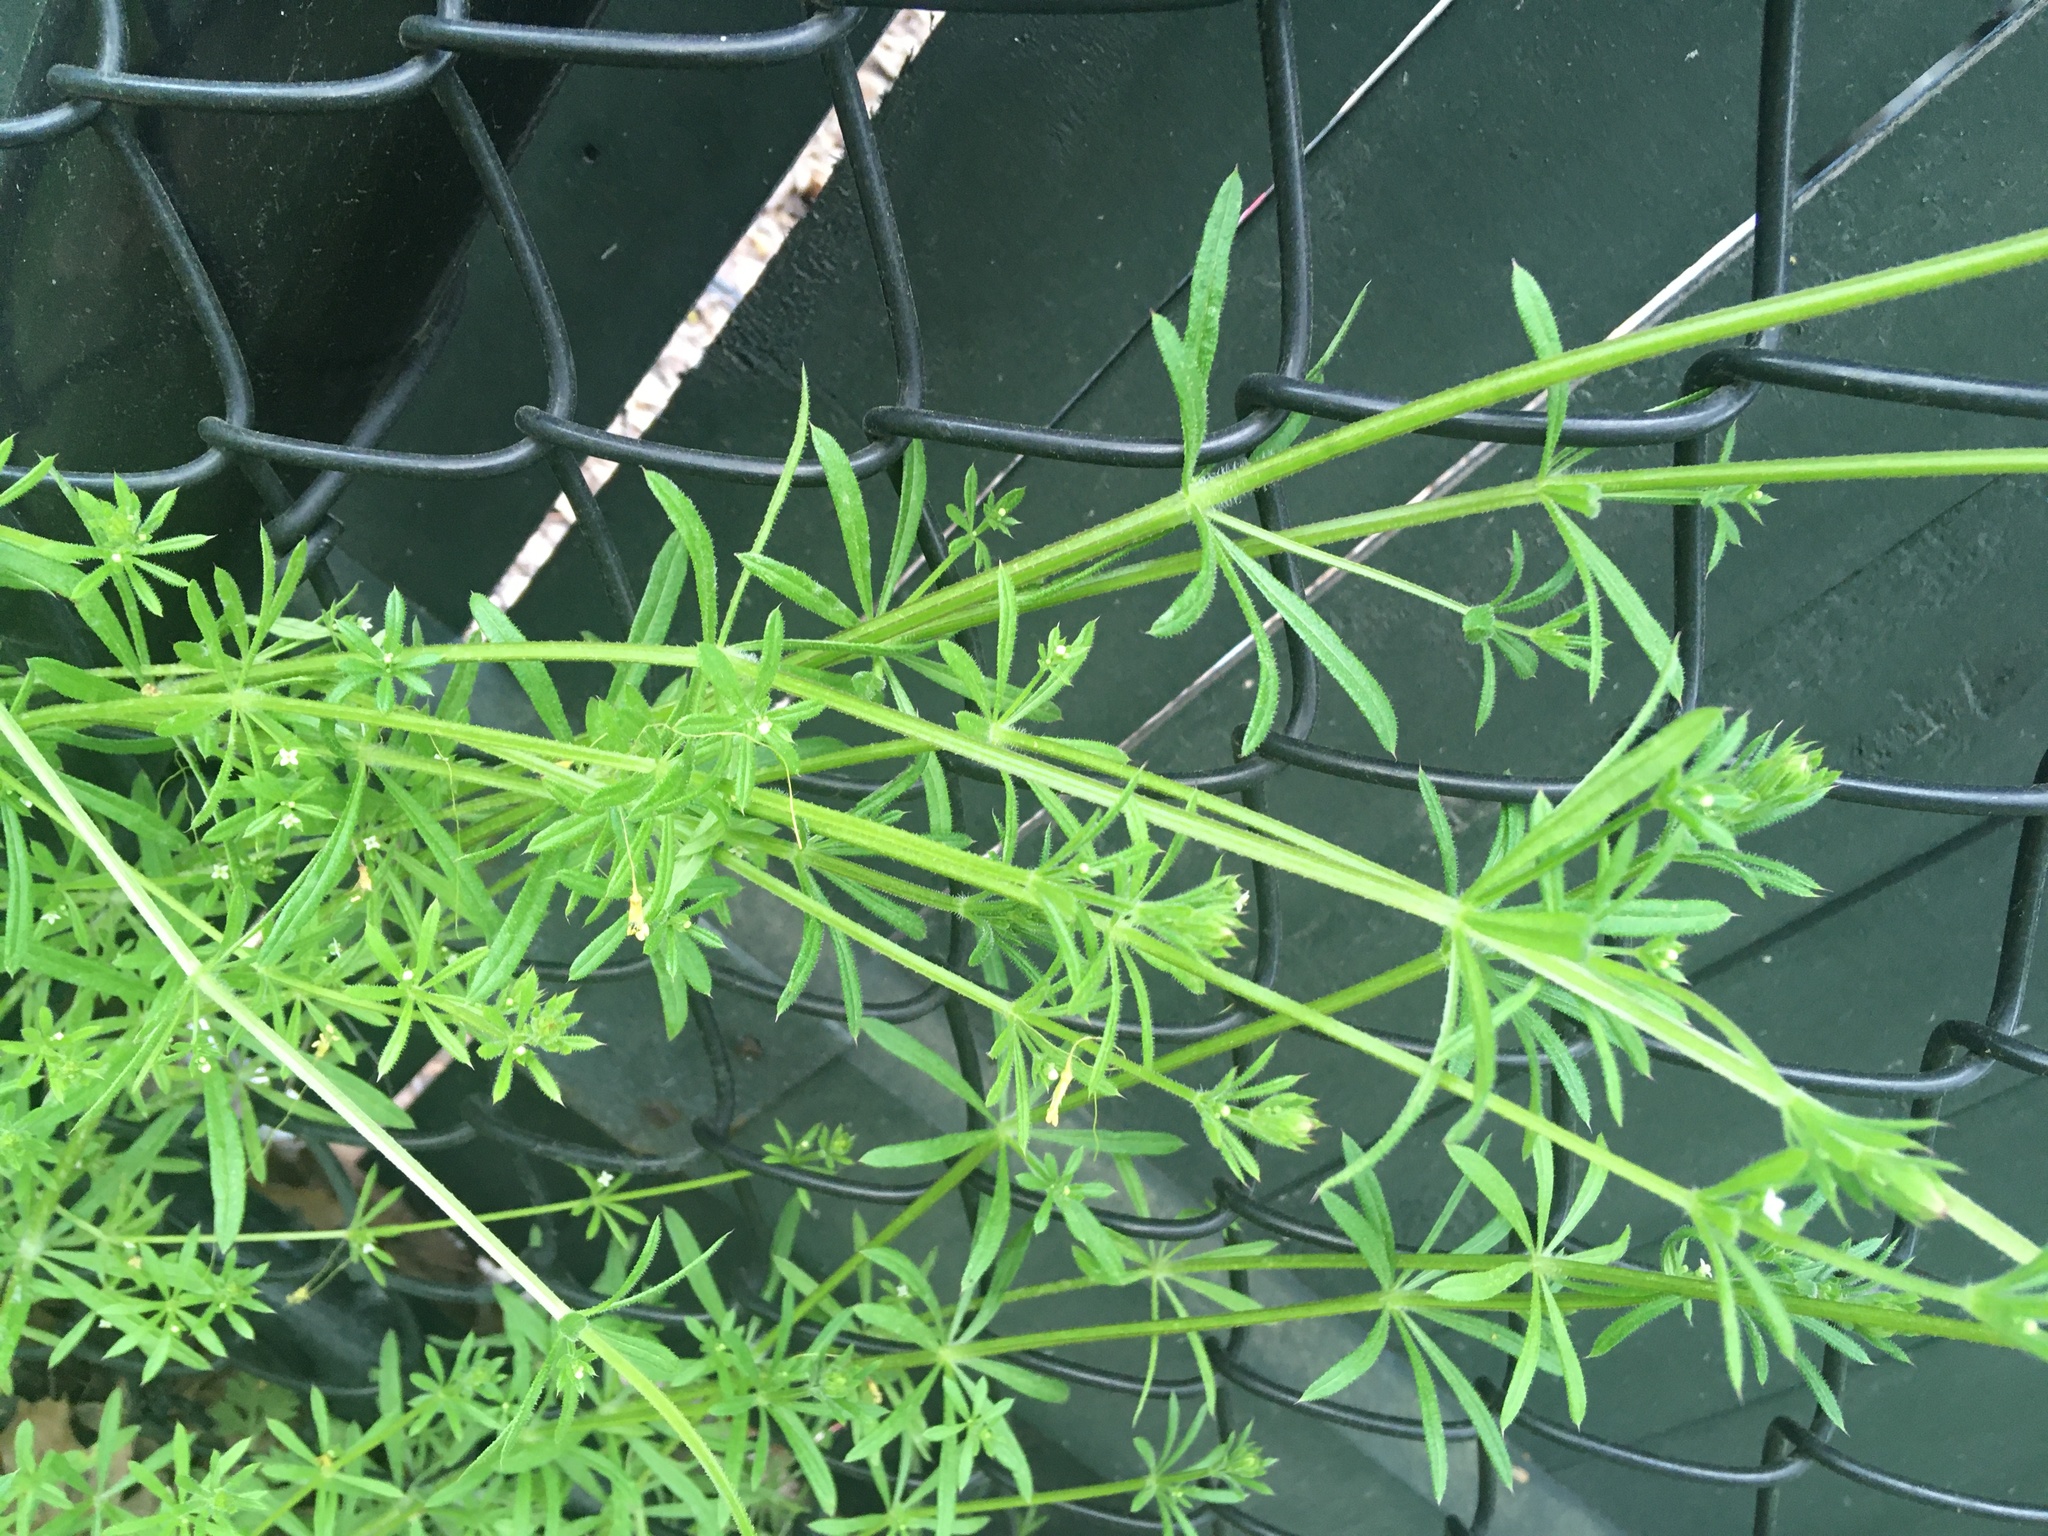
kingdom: Plantae
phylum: Tracheophyta
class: Magnoliopsida
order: Gentianales
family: Rubiaceae
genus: Galium
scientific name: Galium aparine
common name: Cleavers
